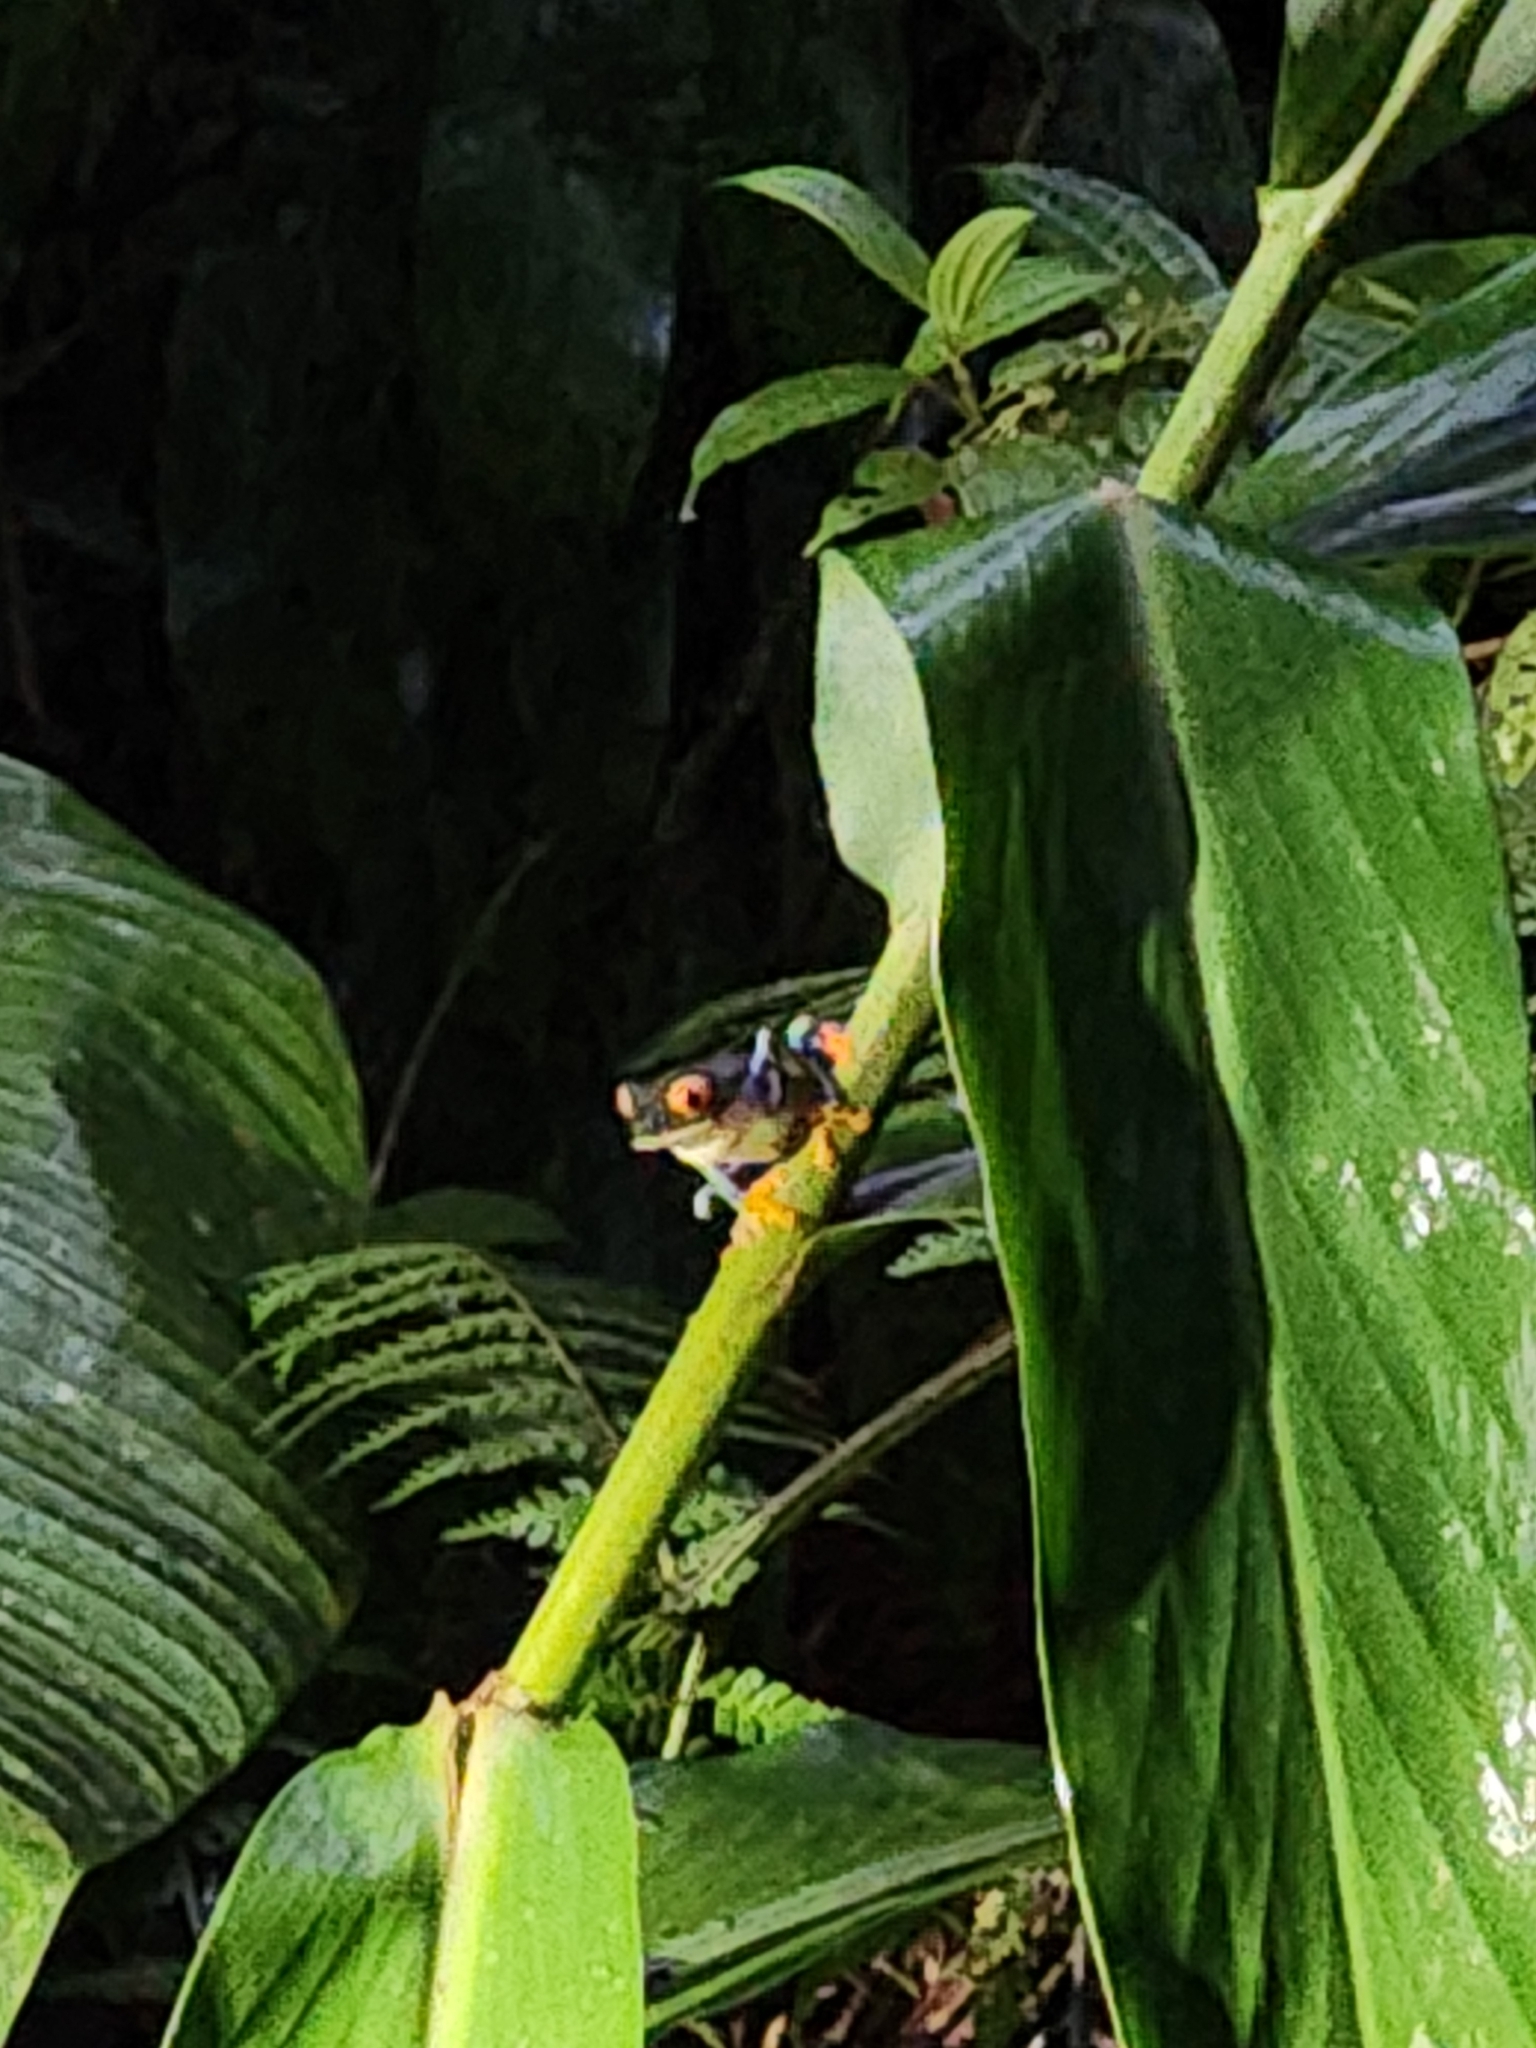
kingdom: Animalia
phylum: Chordata
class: Amphibia
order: Anura
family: Phyllomedusidae
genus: Agalychnis
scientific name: Agalychnis callidryas
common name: Red-eyed treefrog
